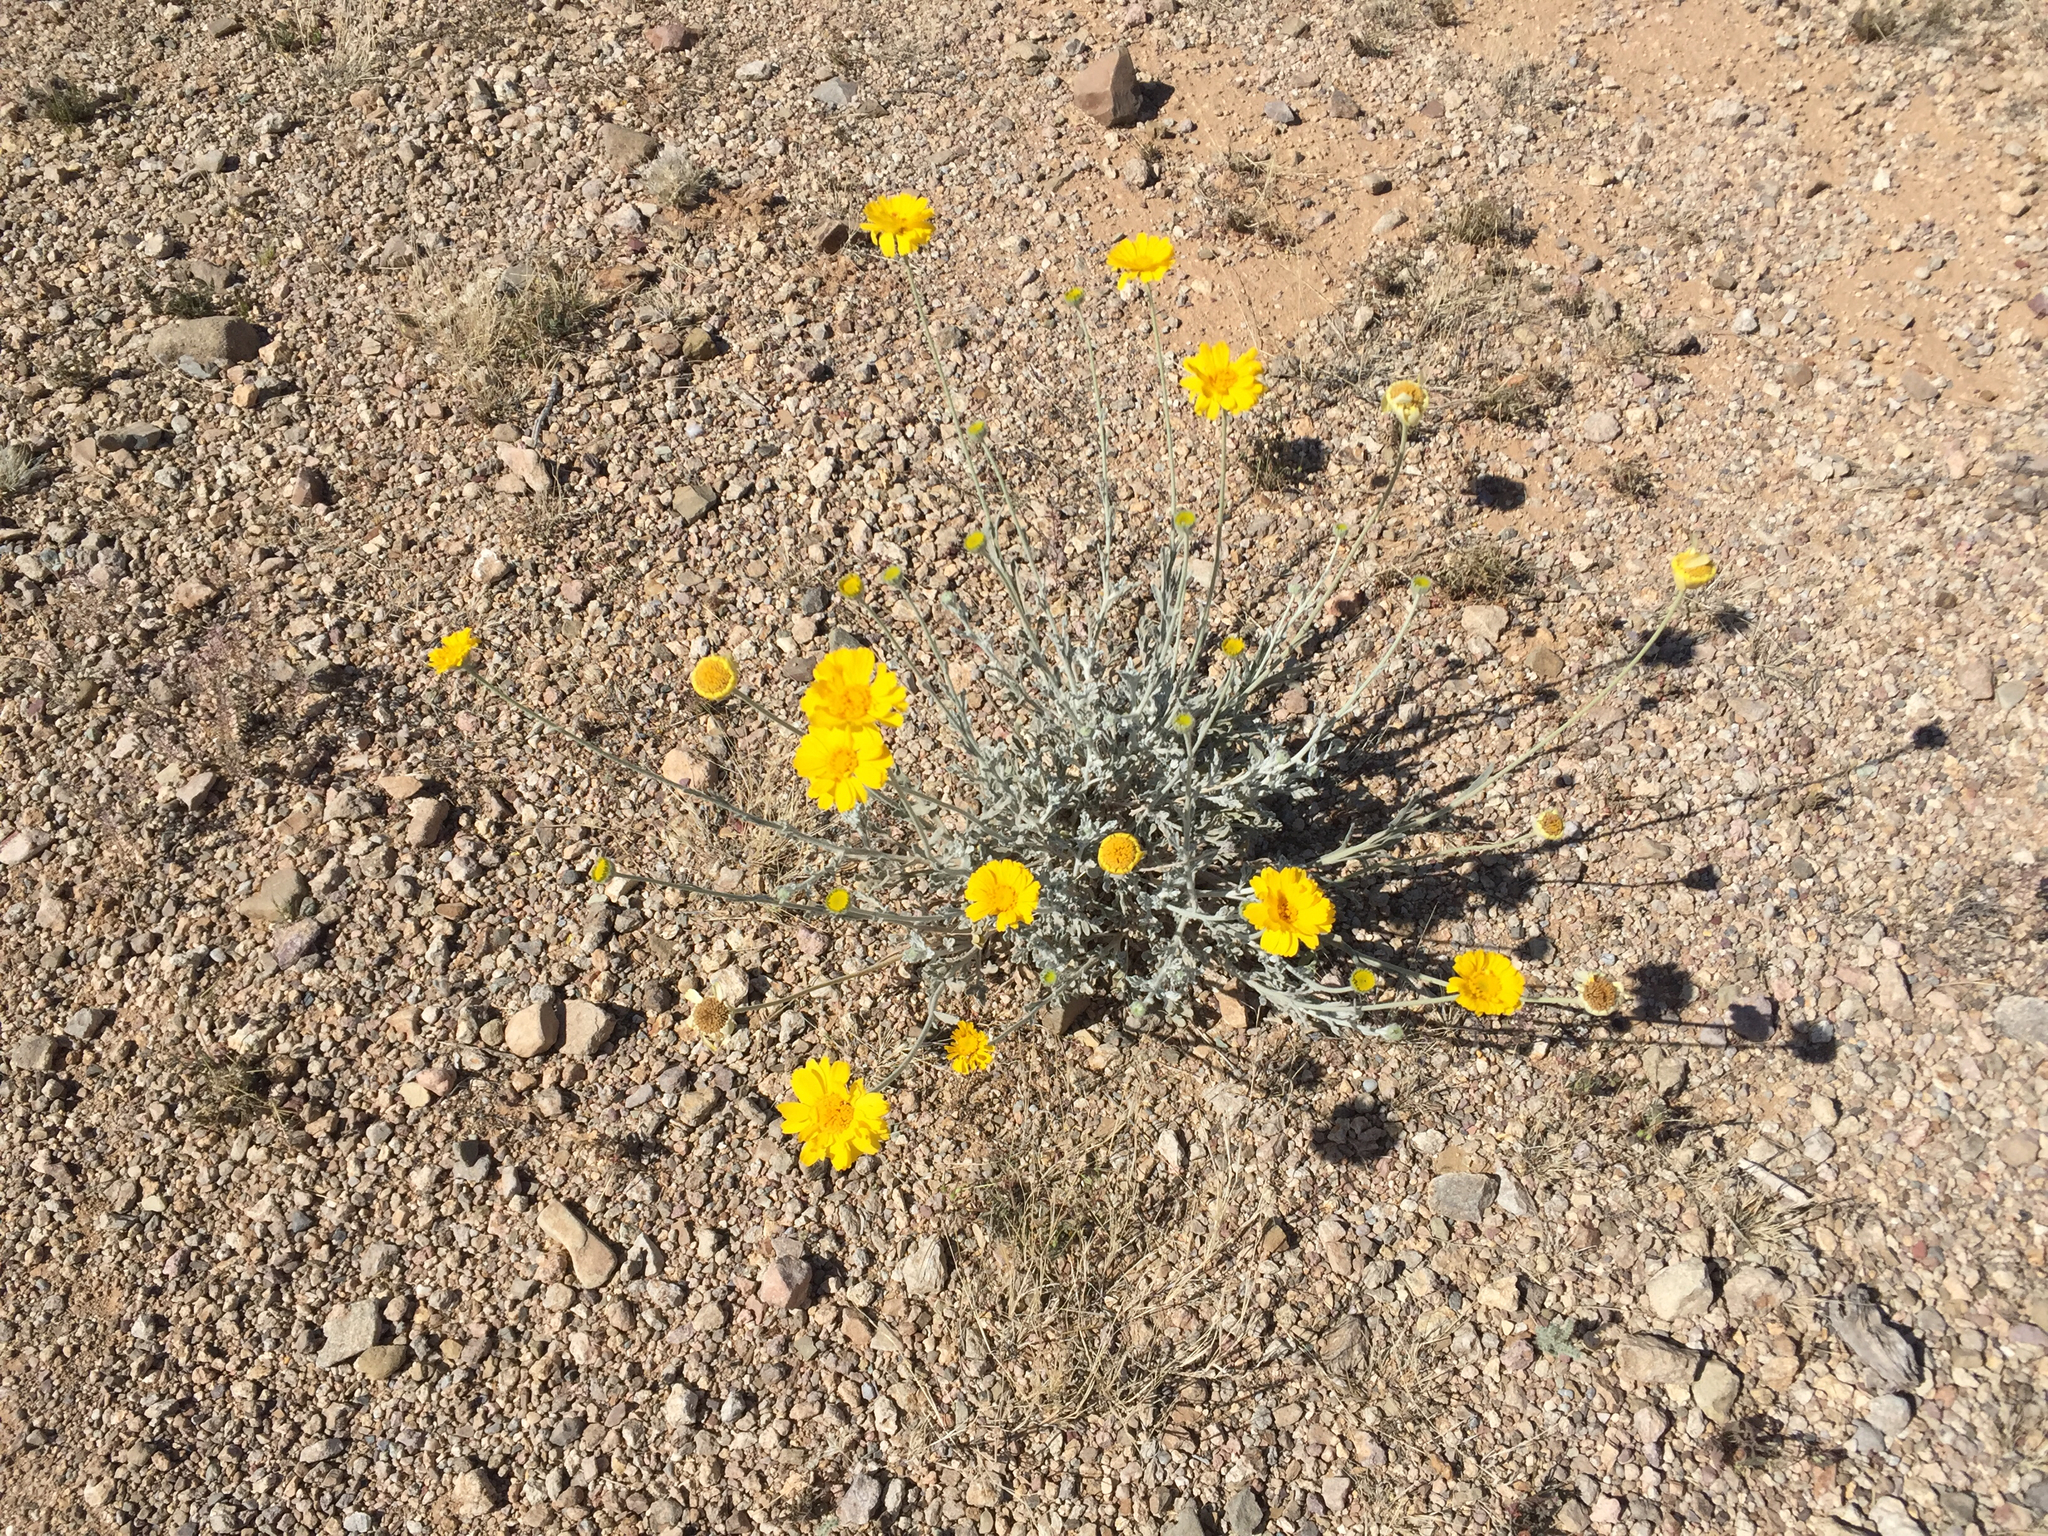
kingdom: Plantae
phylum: Tracheophyta
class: Magnoliopsida
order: Asterales
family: Asteraceae
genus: Baileya
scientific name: Baileya multiradiata
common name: Desert-marigold
